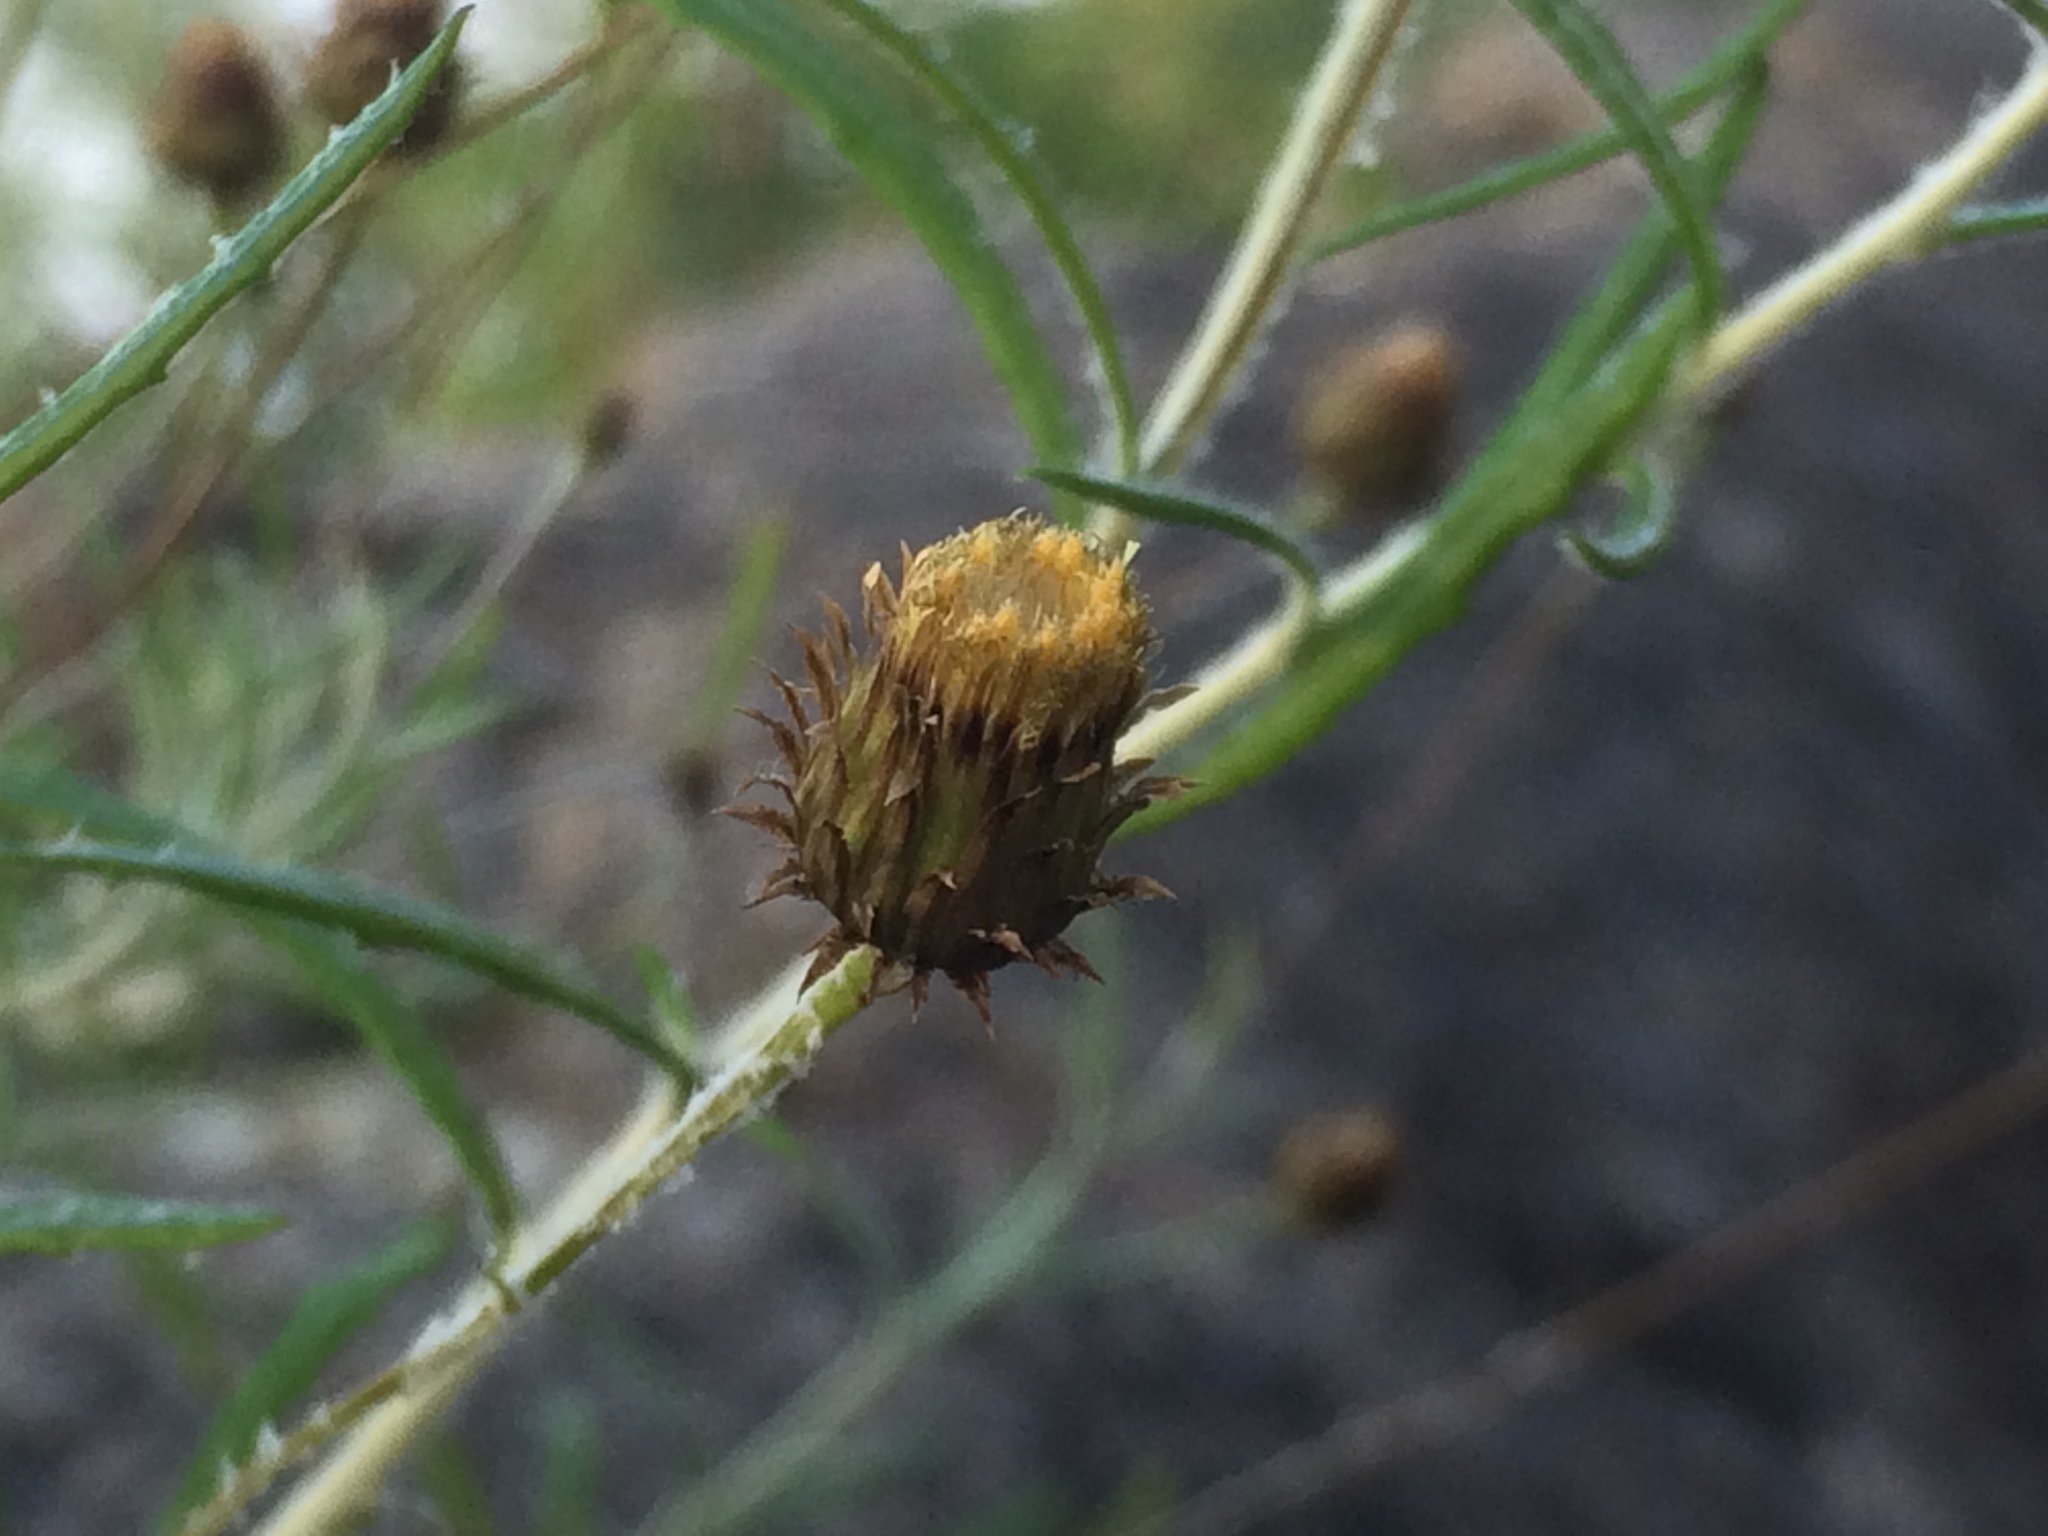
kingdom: Plantae
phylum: Tracheophyta
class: Magnoliopsida
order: Asterales
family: Asteraceae
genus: Phagnalon
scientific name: Phagnalon saxatile
